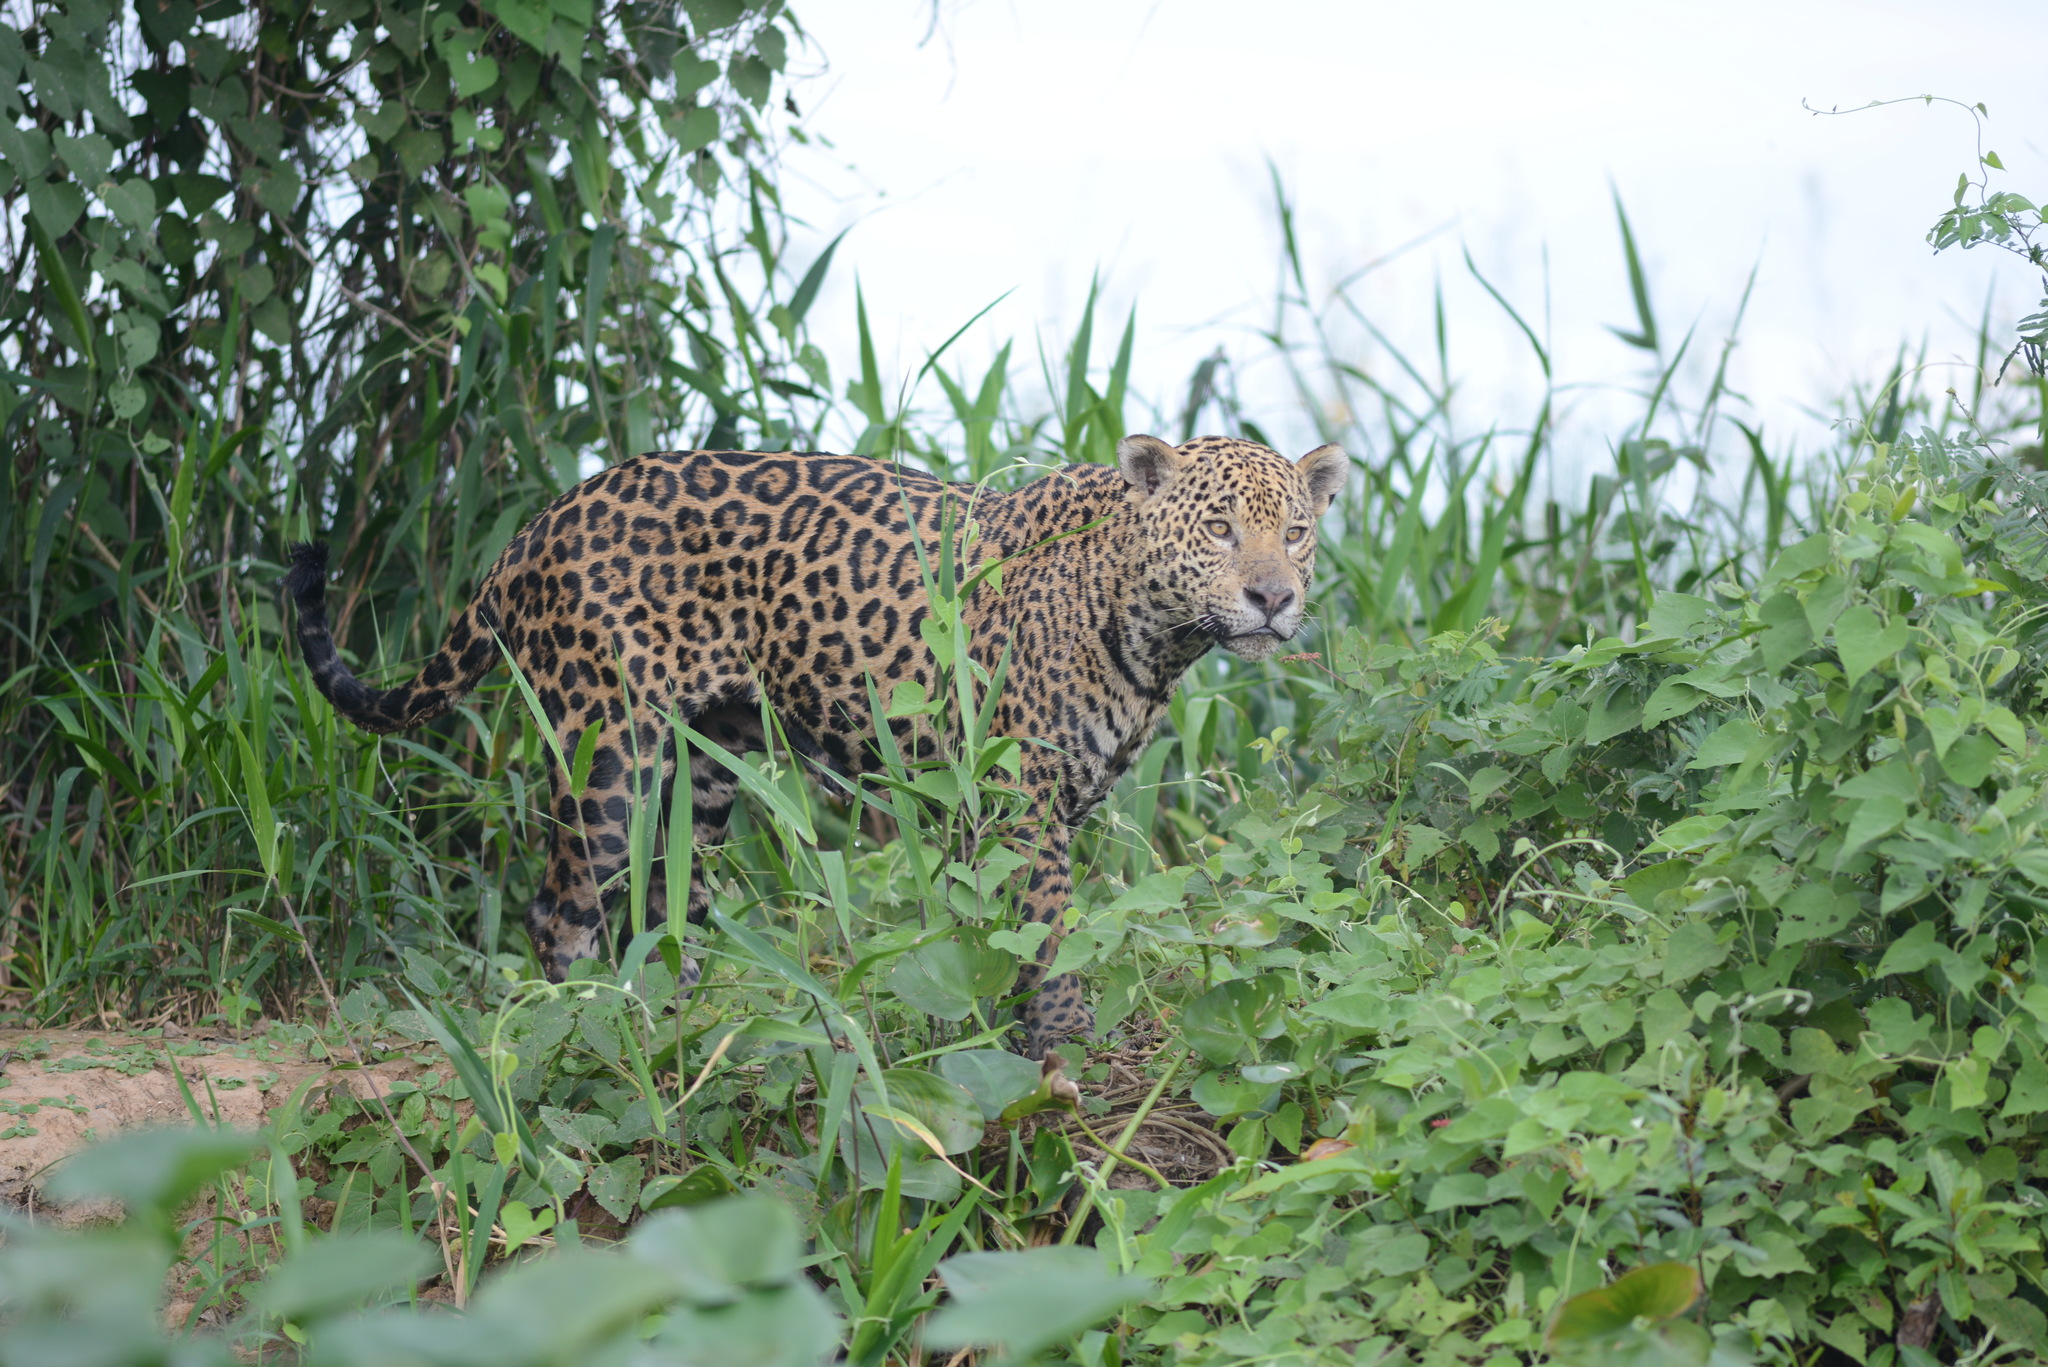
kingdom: Animalia
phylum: Chordata
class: Mammalia
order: Carnivora
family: Felidae
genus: Panthera
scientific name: Panthera onca
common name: Jaguar
